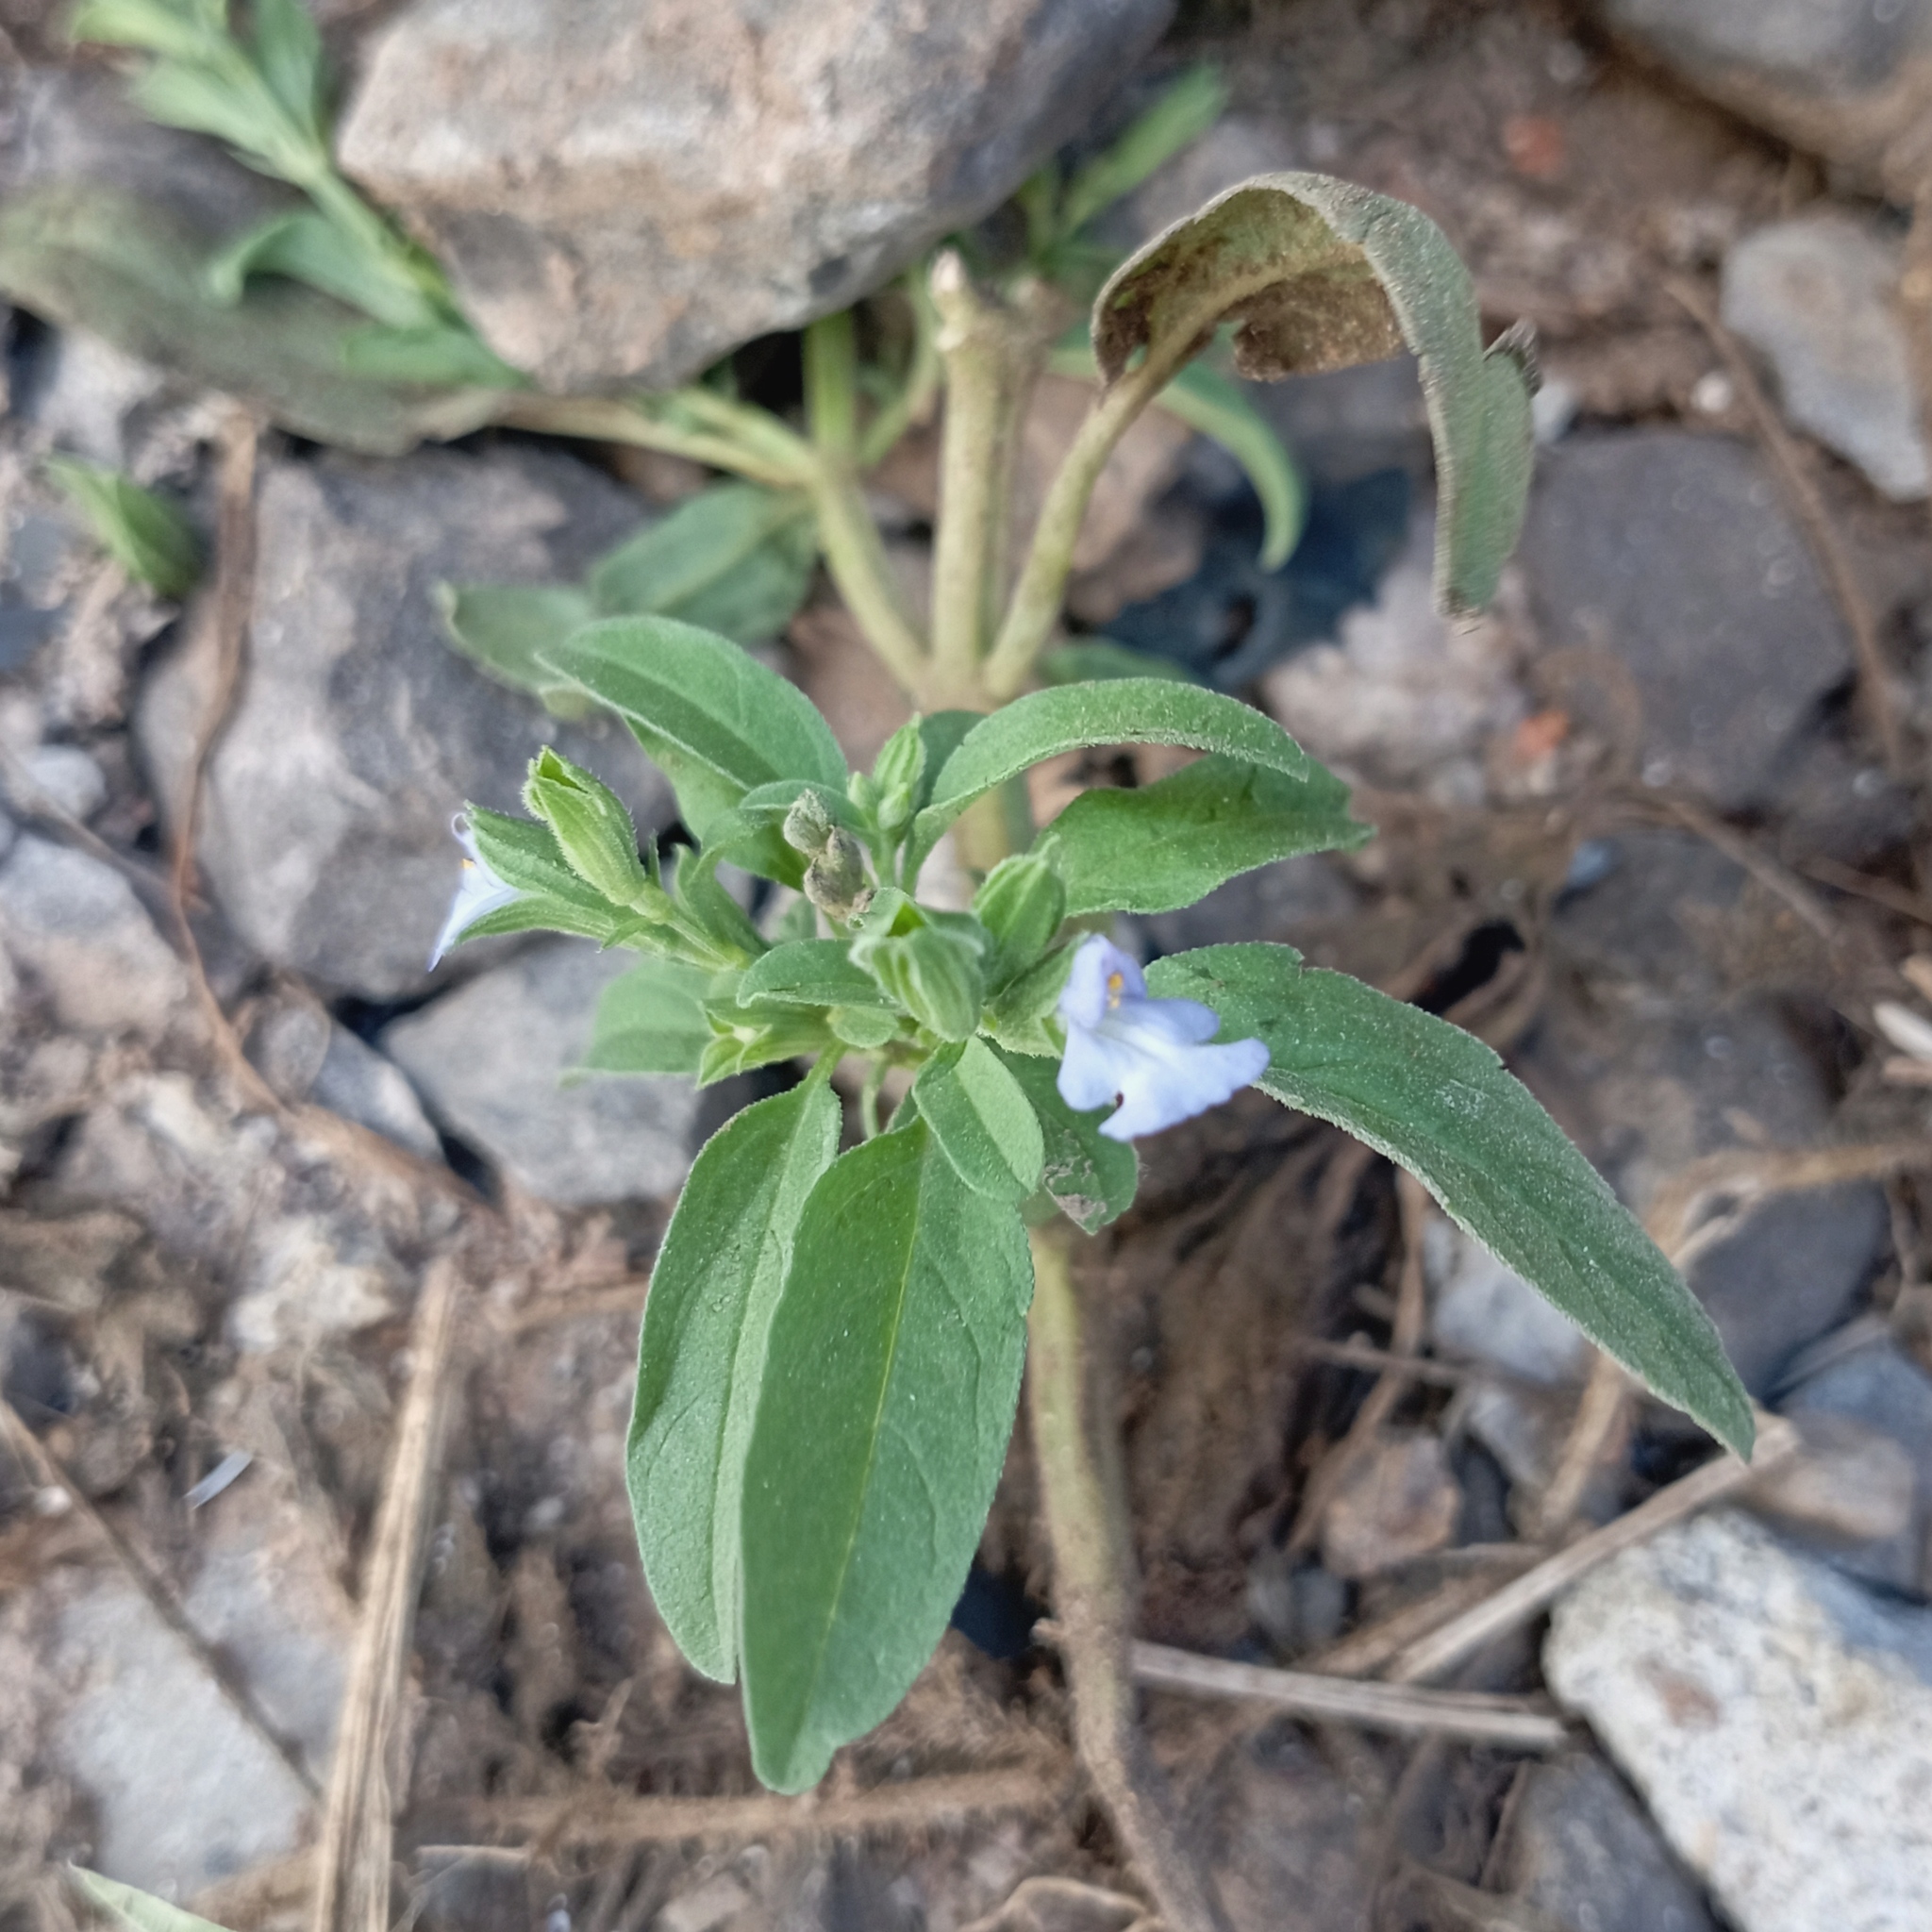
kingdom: Plantae
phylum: Tracheophyta
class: Magnoliopsida
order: Lamiales
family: Lamiaceae
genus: Salvia
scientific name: Salvia reflexa
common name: Mintweed
